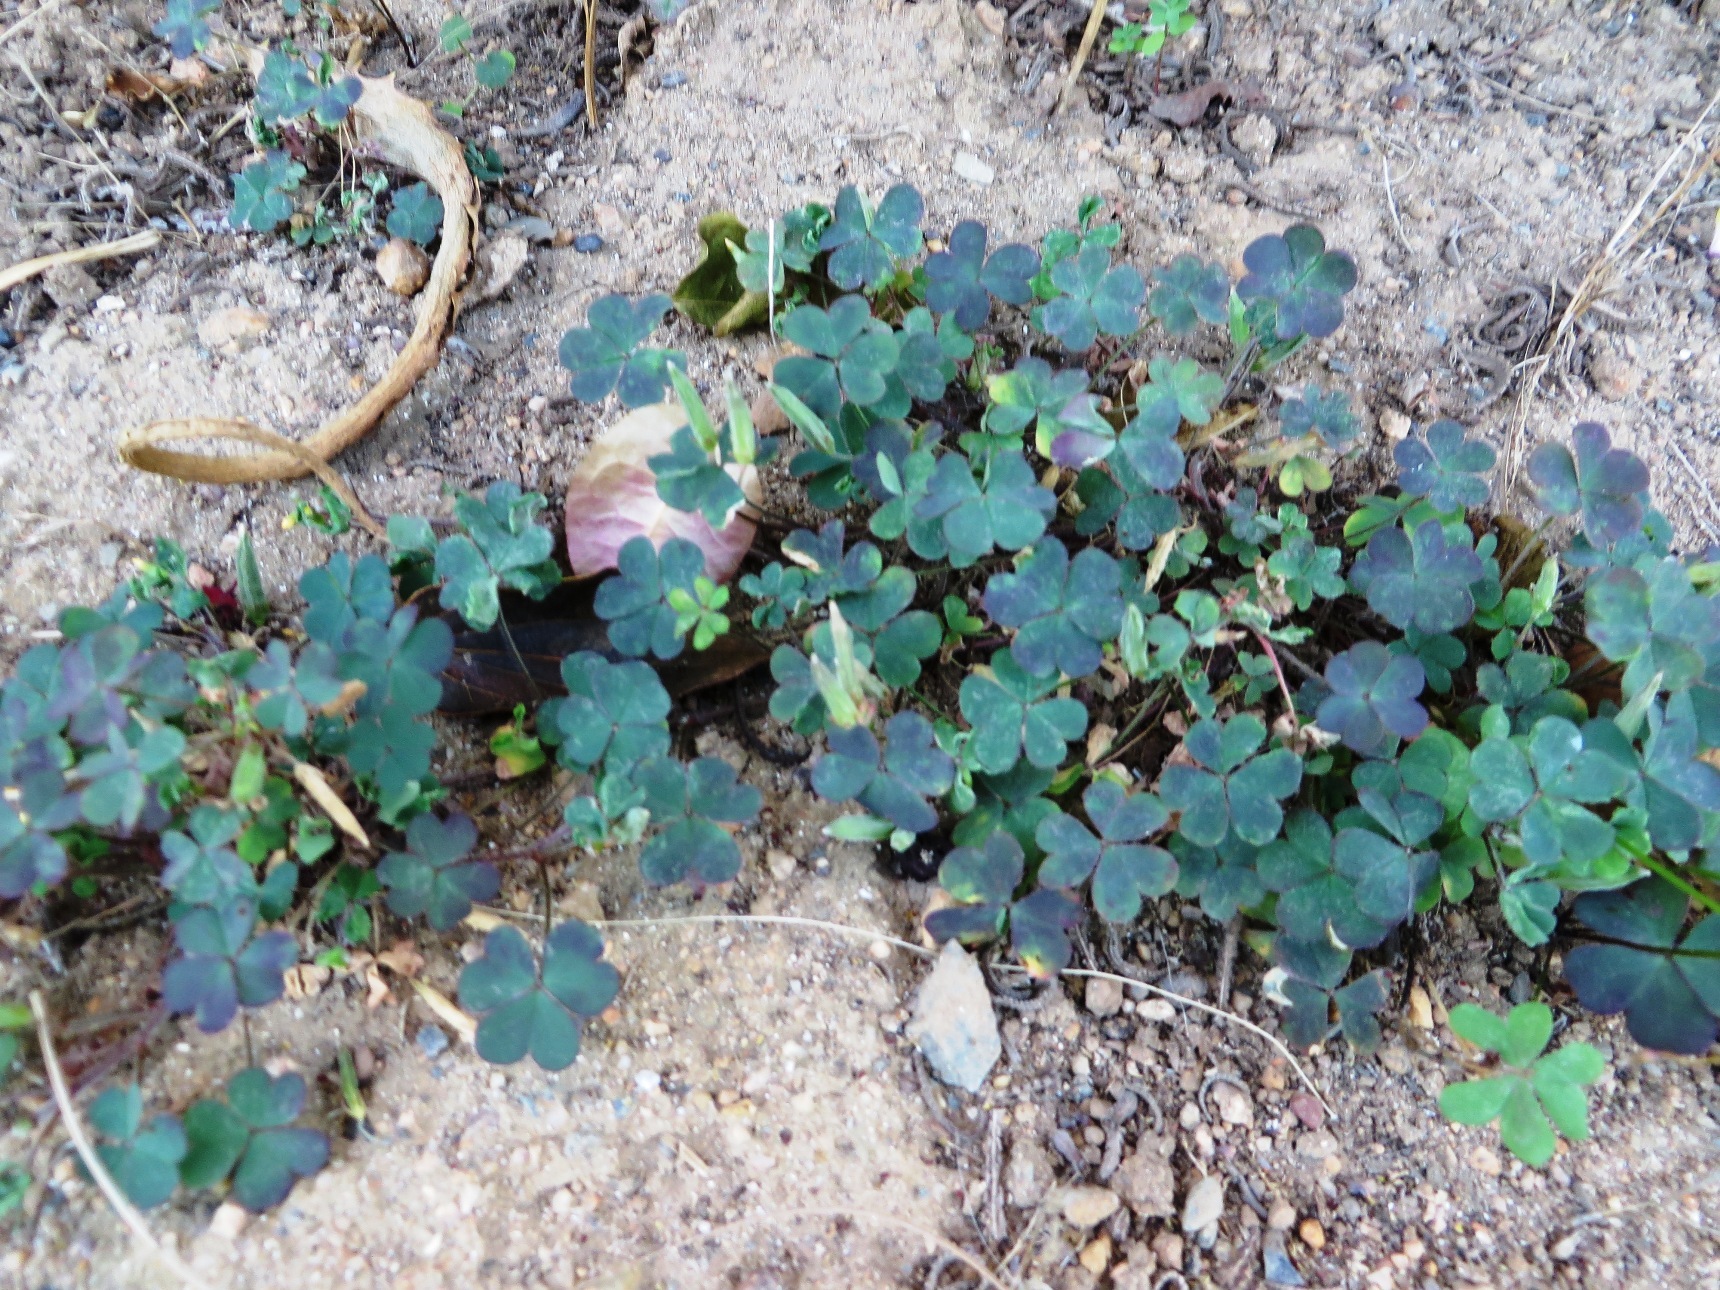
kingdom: Plantae
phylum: Tracheophyta
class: Magnoliopsida
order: Oxalidales
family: Oxalidaceae
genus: Oxalis
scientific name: Oxalis corniculata
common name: Procumbent yellow-sorrel
